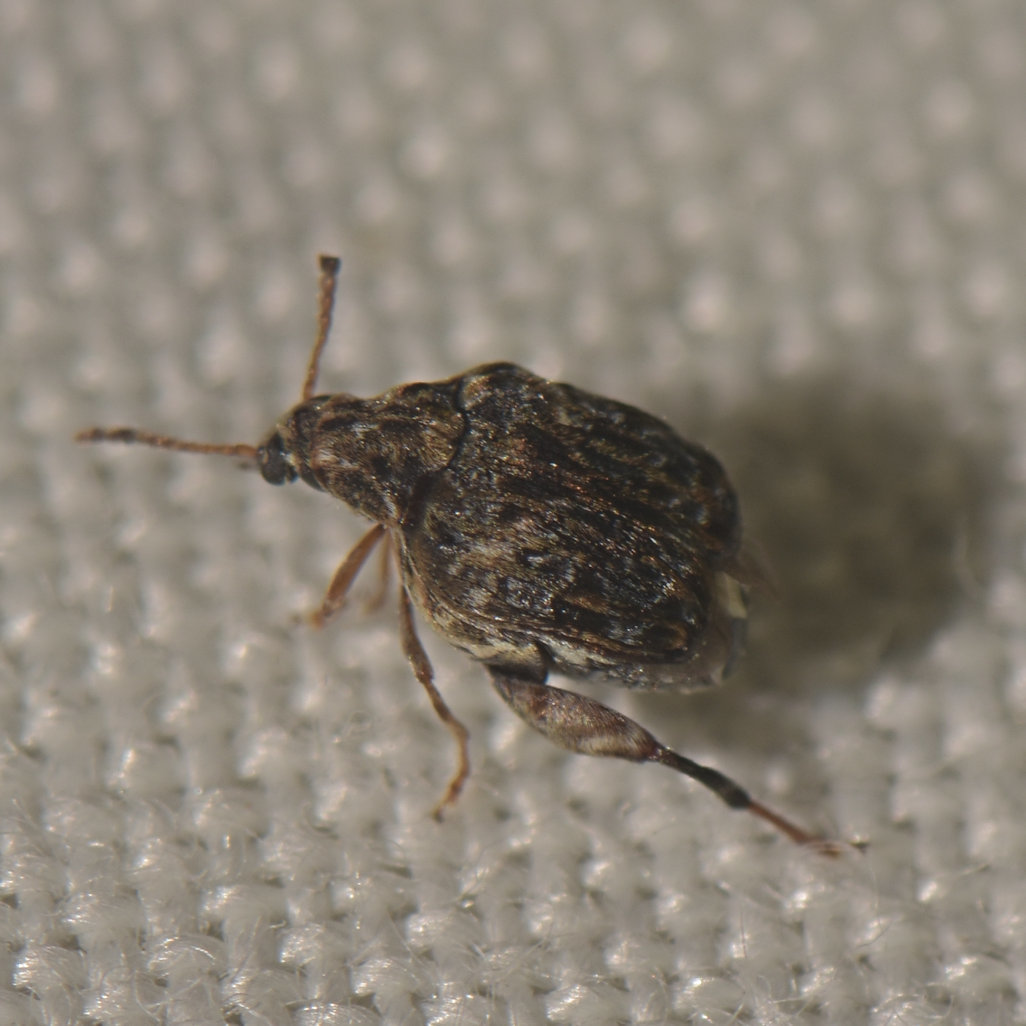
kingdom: Animalia
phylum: Arthropoda
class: Insecta
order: Coleoptera
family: Chrysomelidae
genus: Gibbobruchus
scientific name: Gibbobruchus mimus
